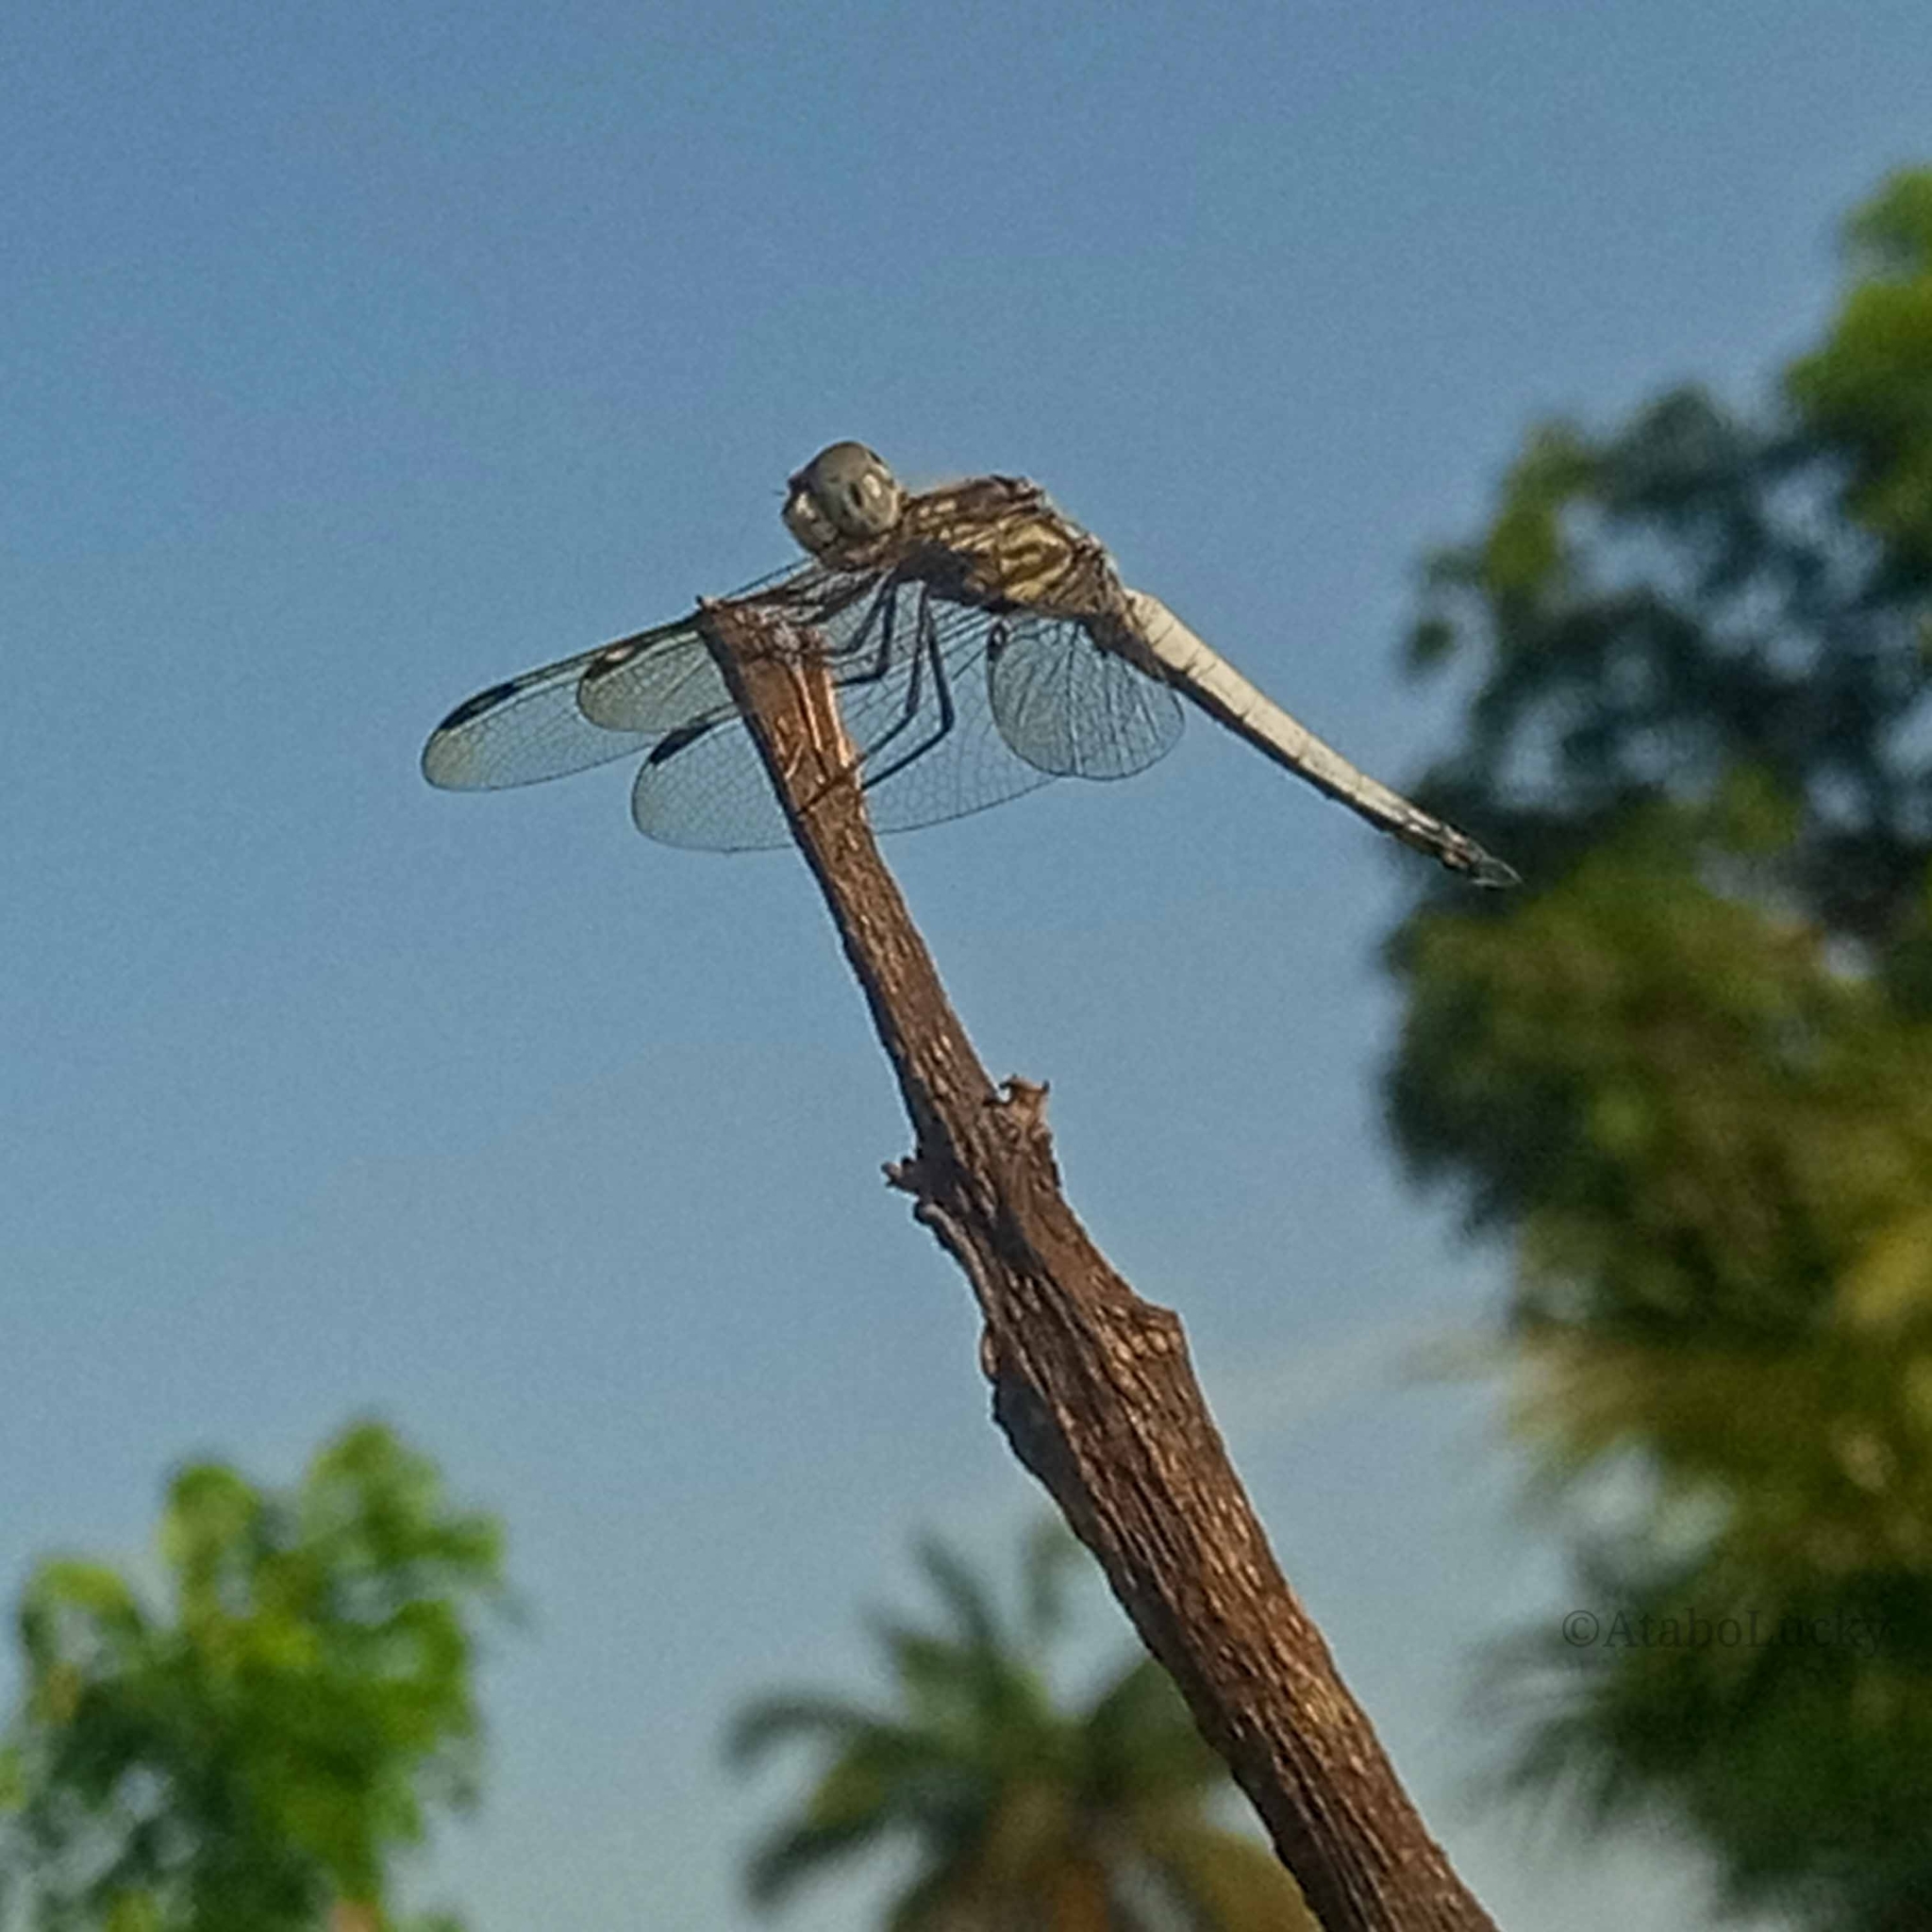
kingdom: Animalia
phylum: Arthropoda
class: Insecta
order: Odonata
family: Libellulidae
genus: Palpopleura
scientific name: Palpopleura deceptor
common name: Deceptive widow
